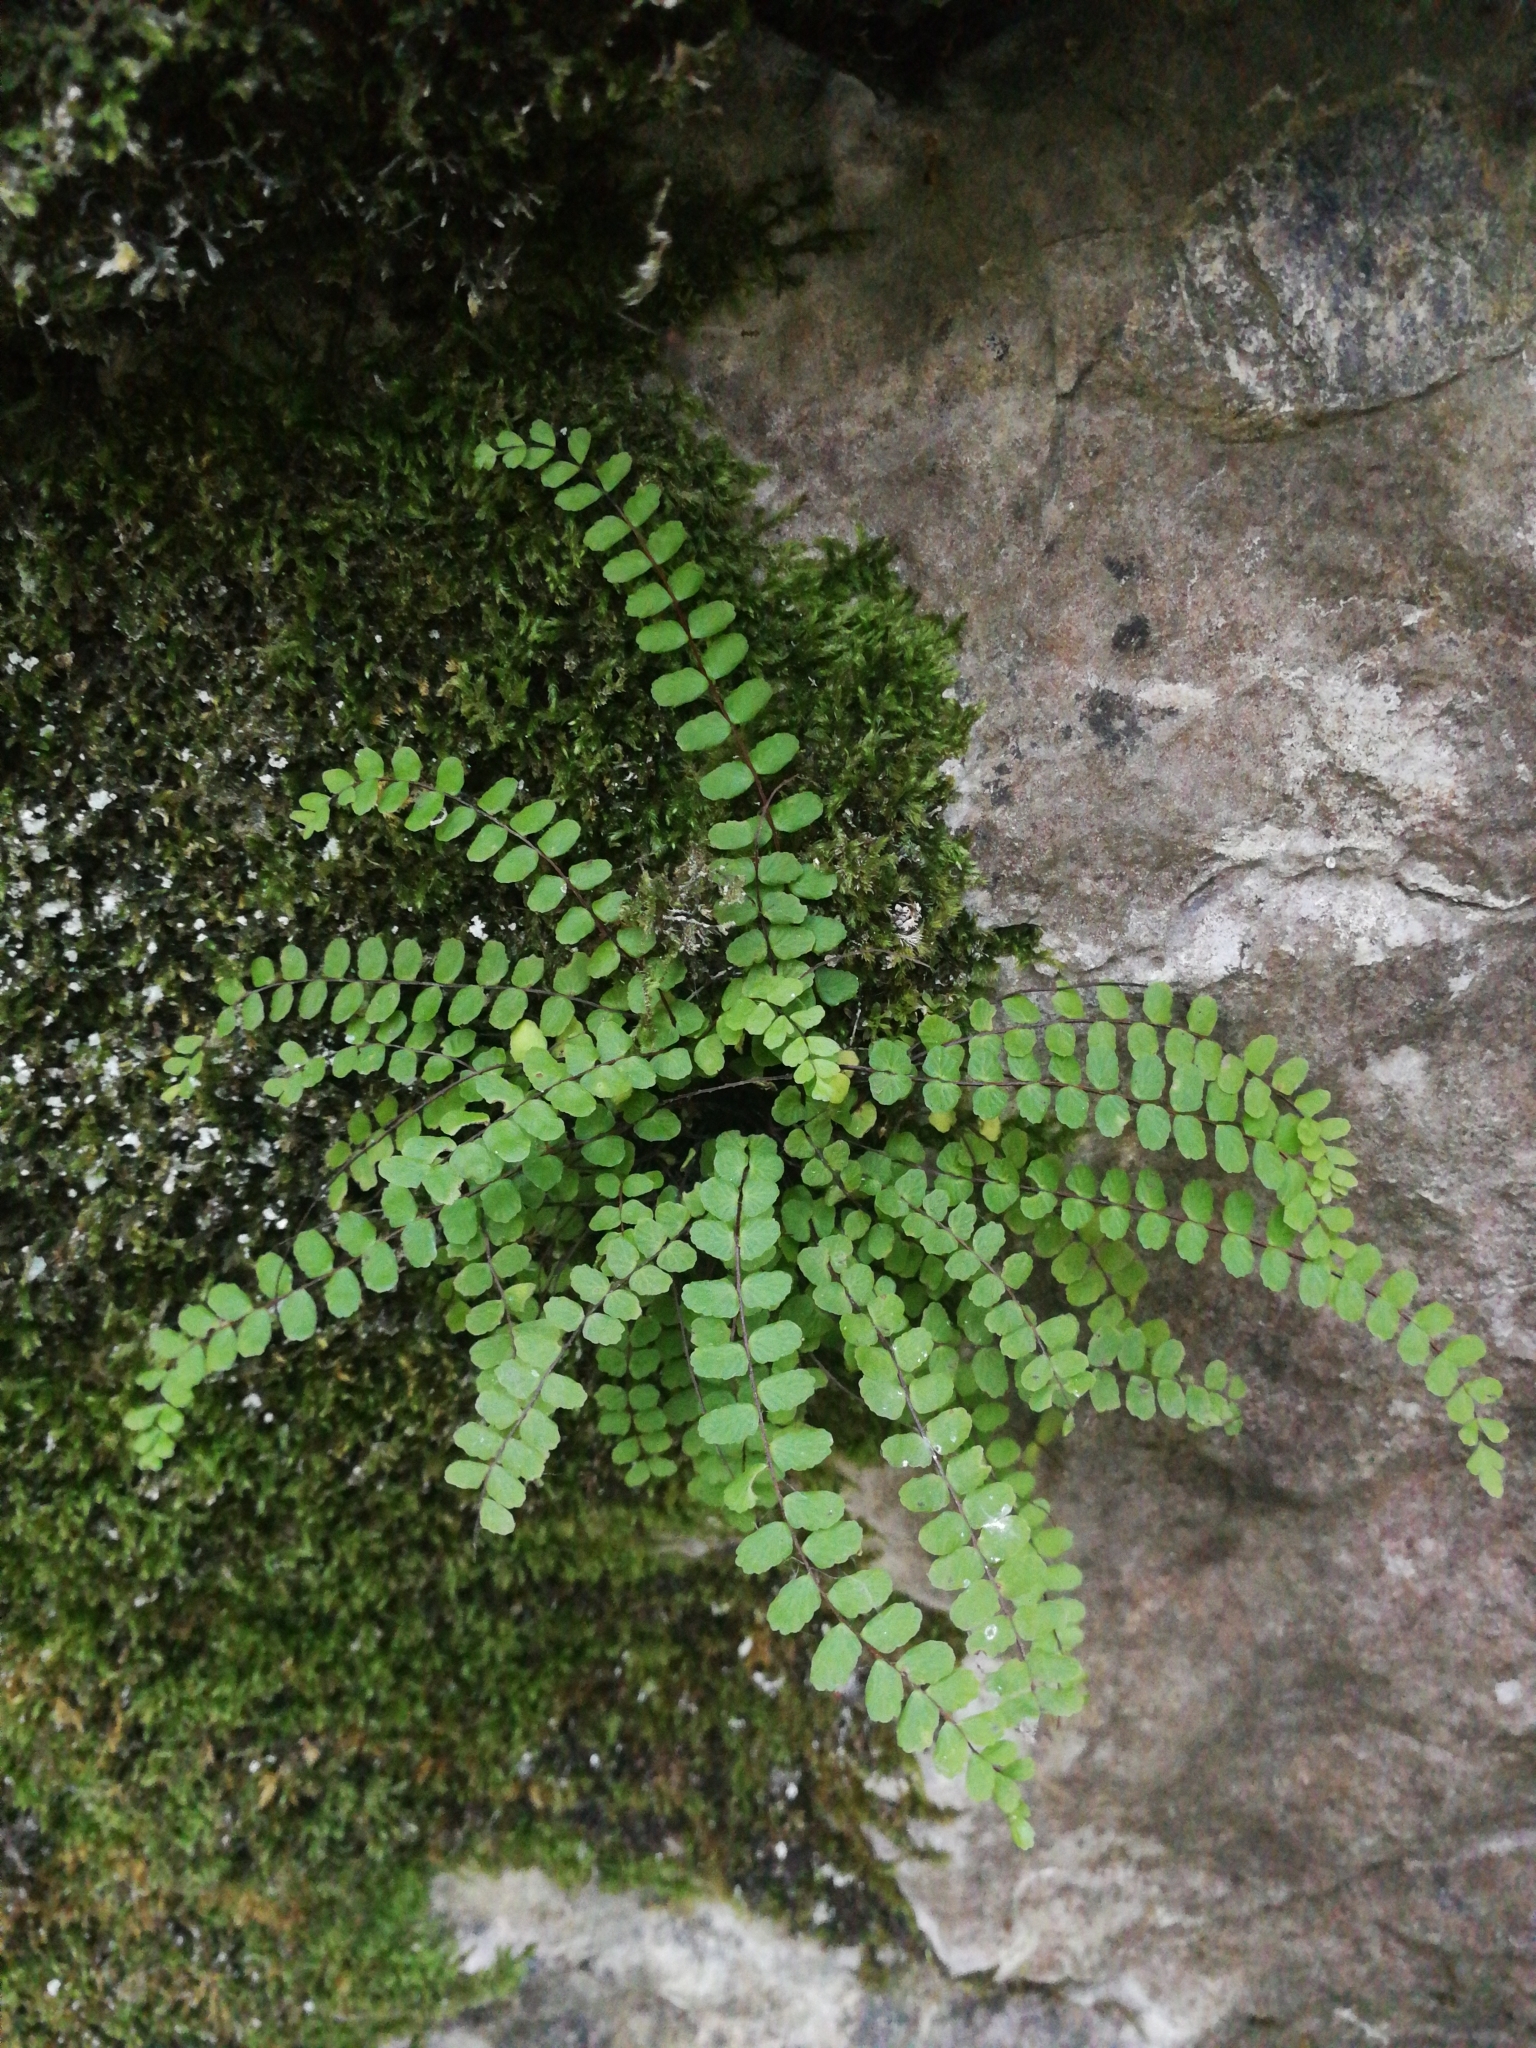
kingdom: Plantae
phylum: Tracheophyta
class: Polypodiopsida
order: Polypodiales
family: Aspleniaceae
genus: Asplenium
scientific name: Asplenium trichomanes
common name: Maidenhair spleenwort
